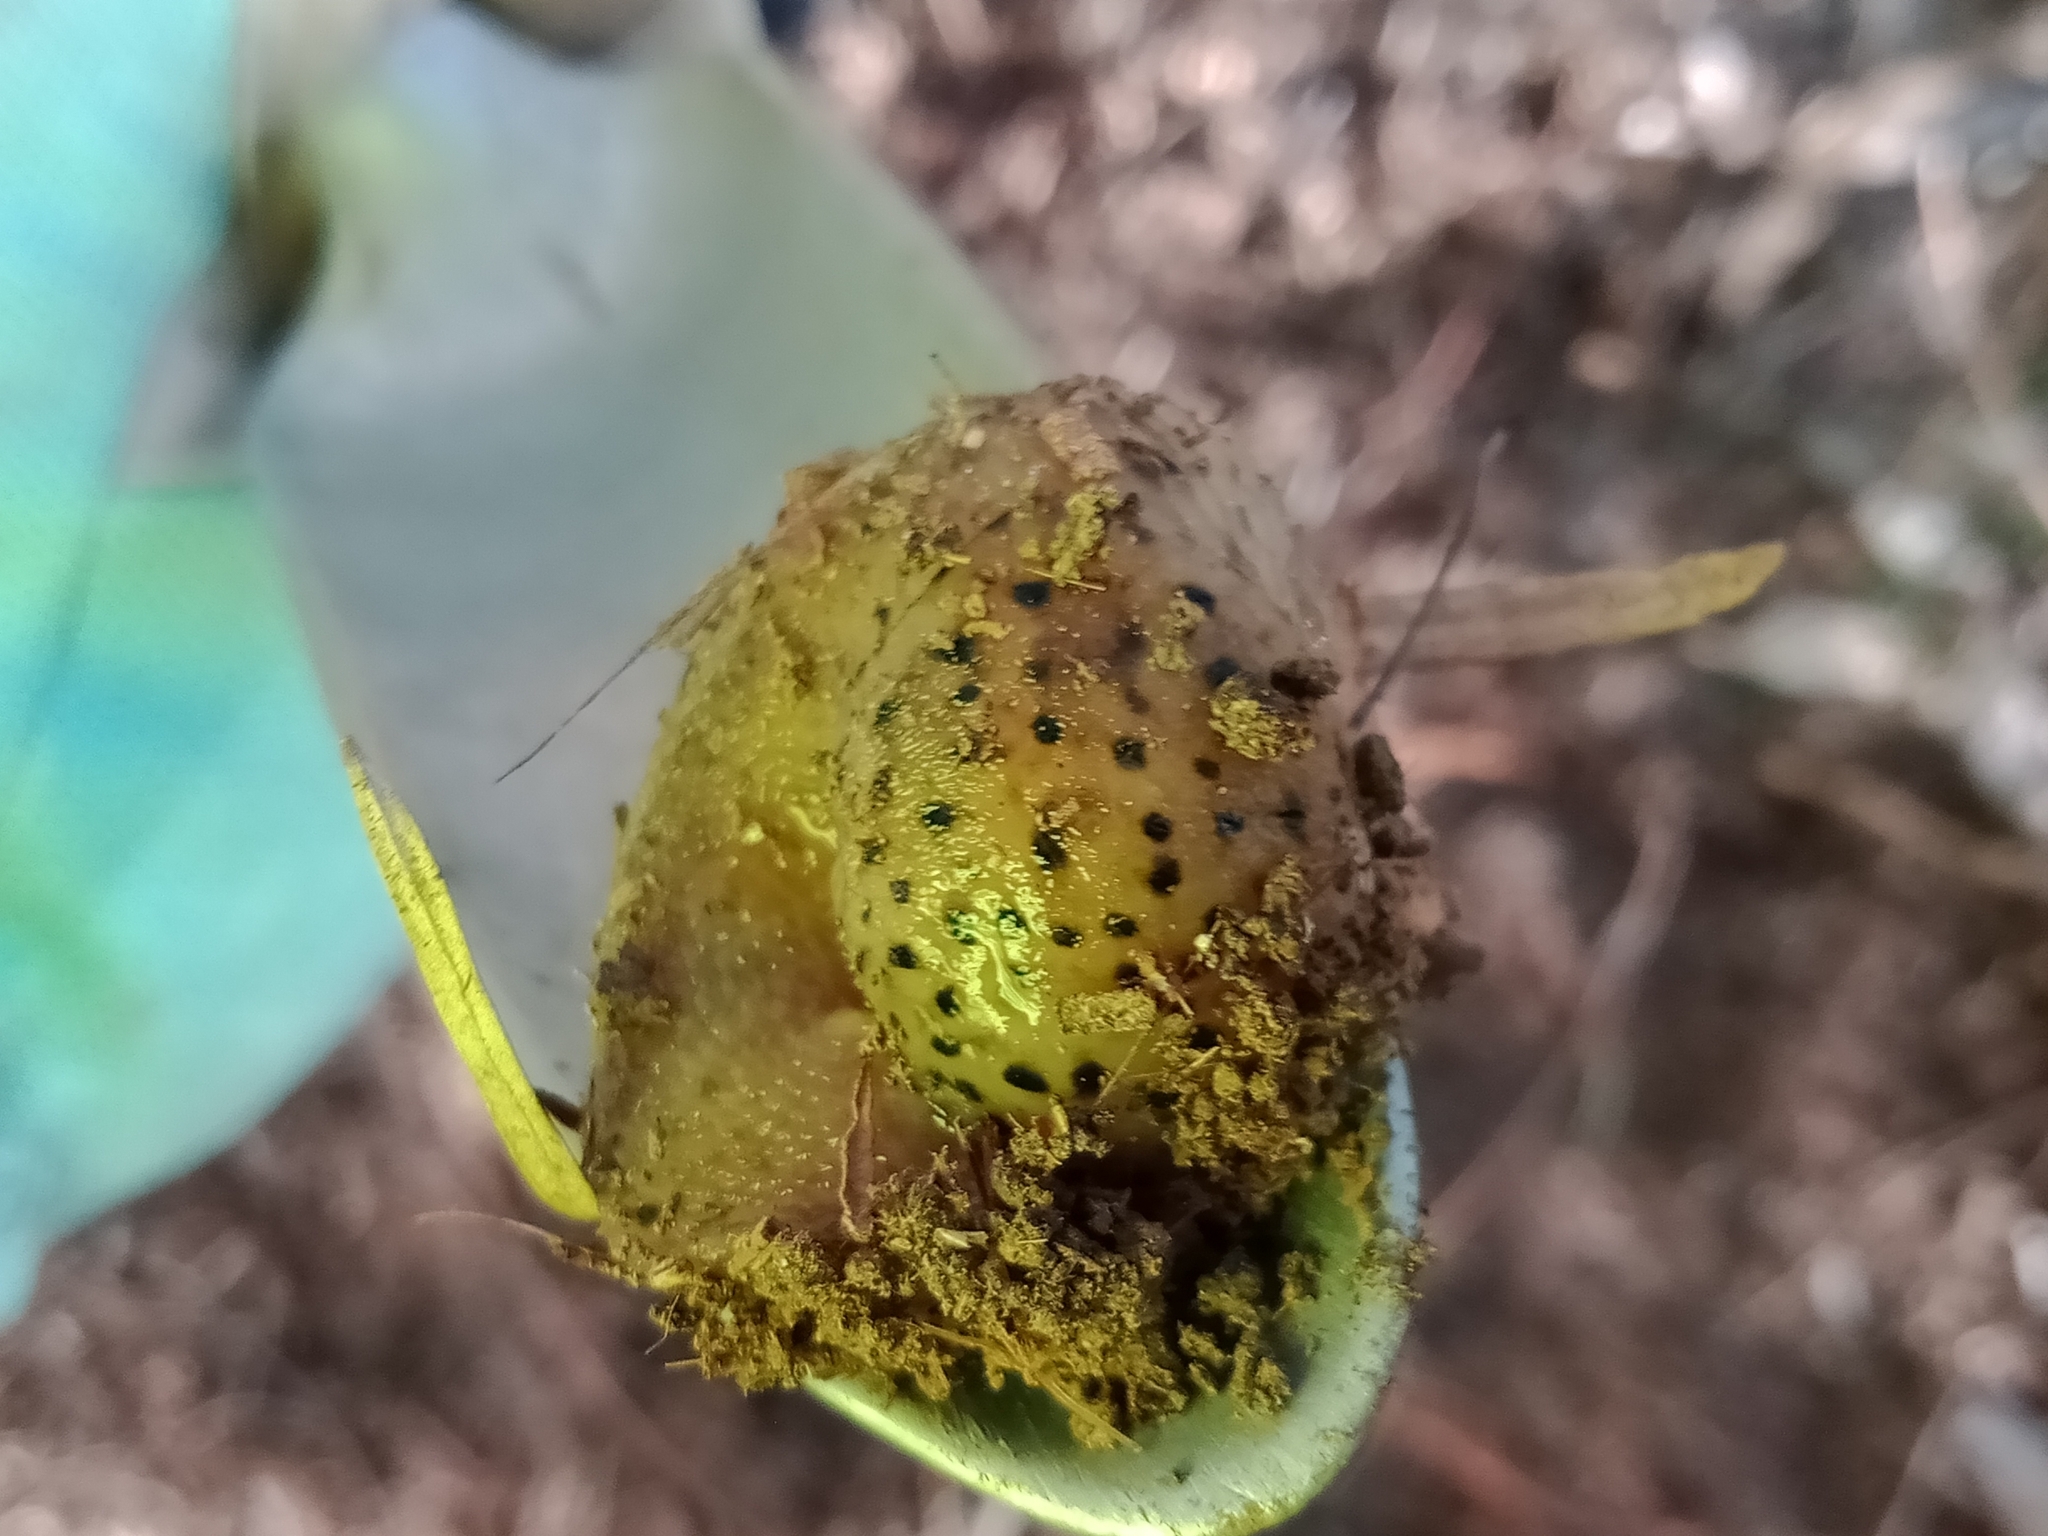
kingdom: Animalia
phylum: Mollusca
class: Gastropoda
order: Stylommatophora
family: Limacidae
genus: Limax
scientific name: Limax maximus
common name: Great grey slug
